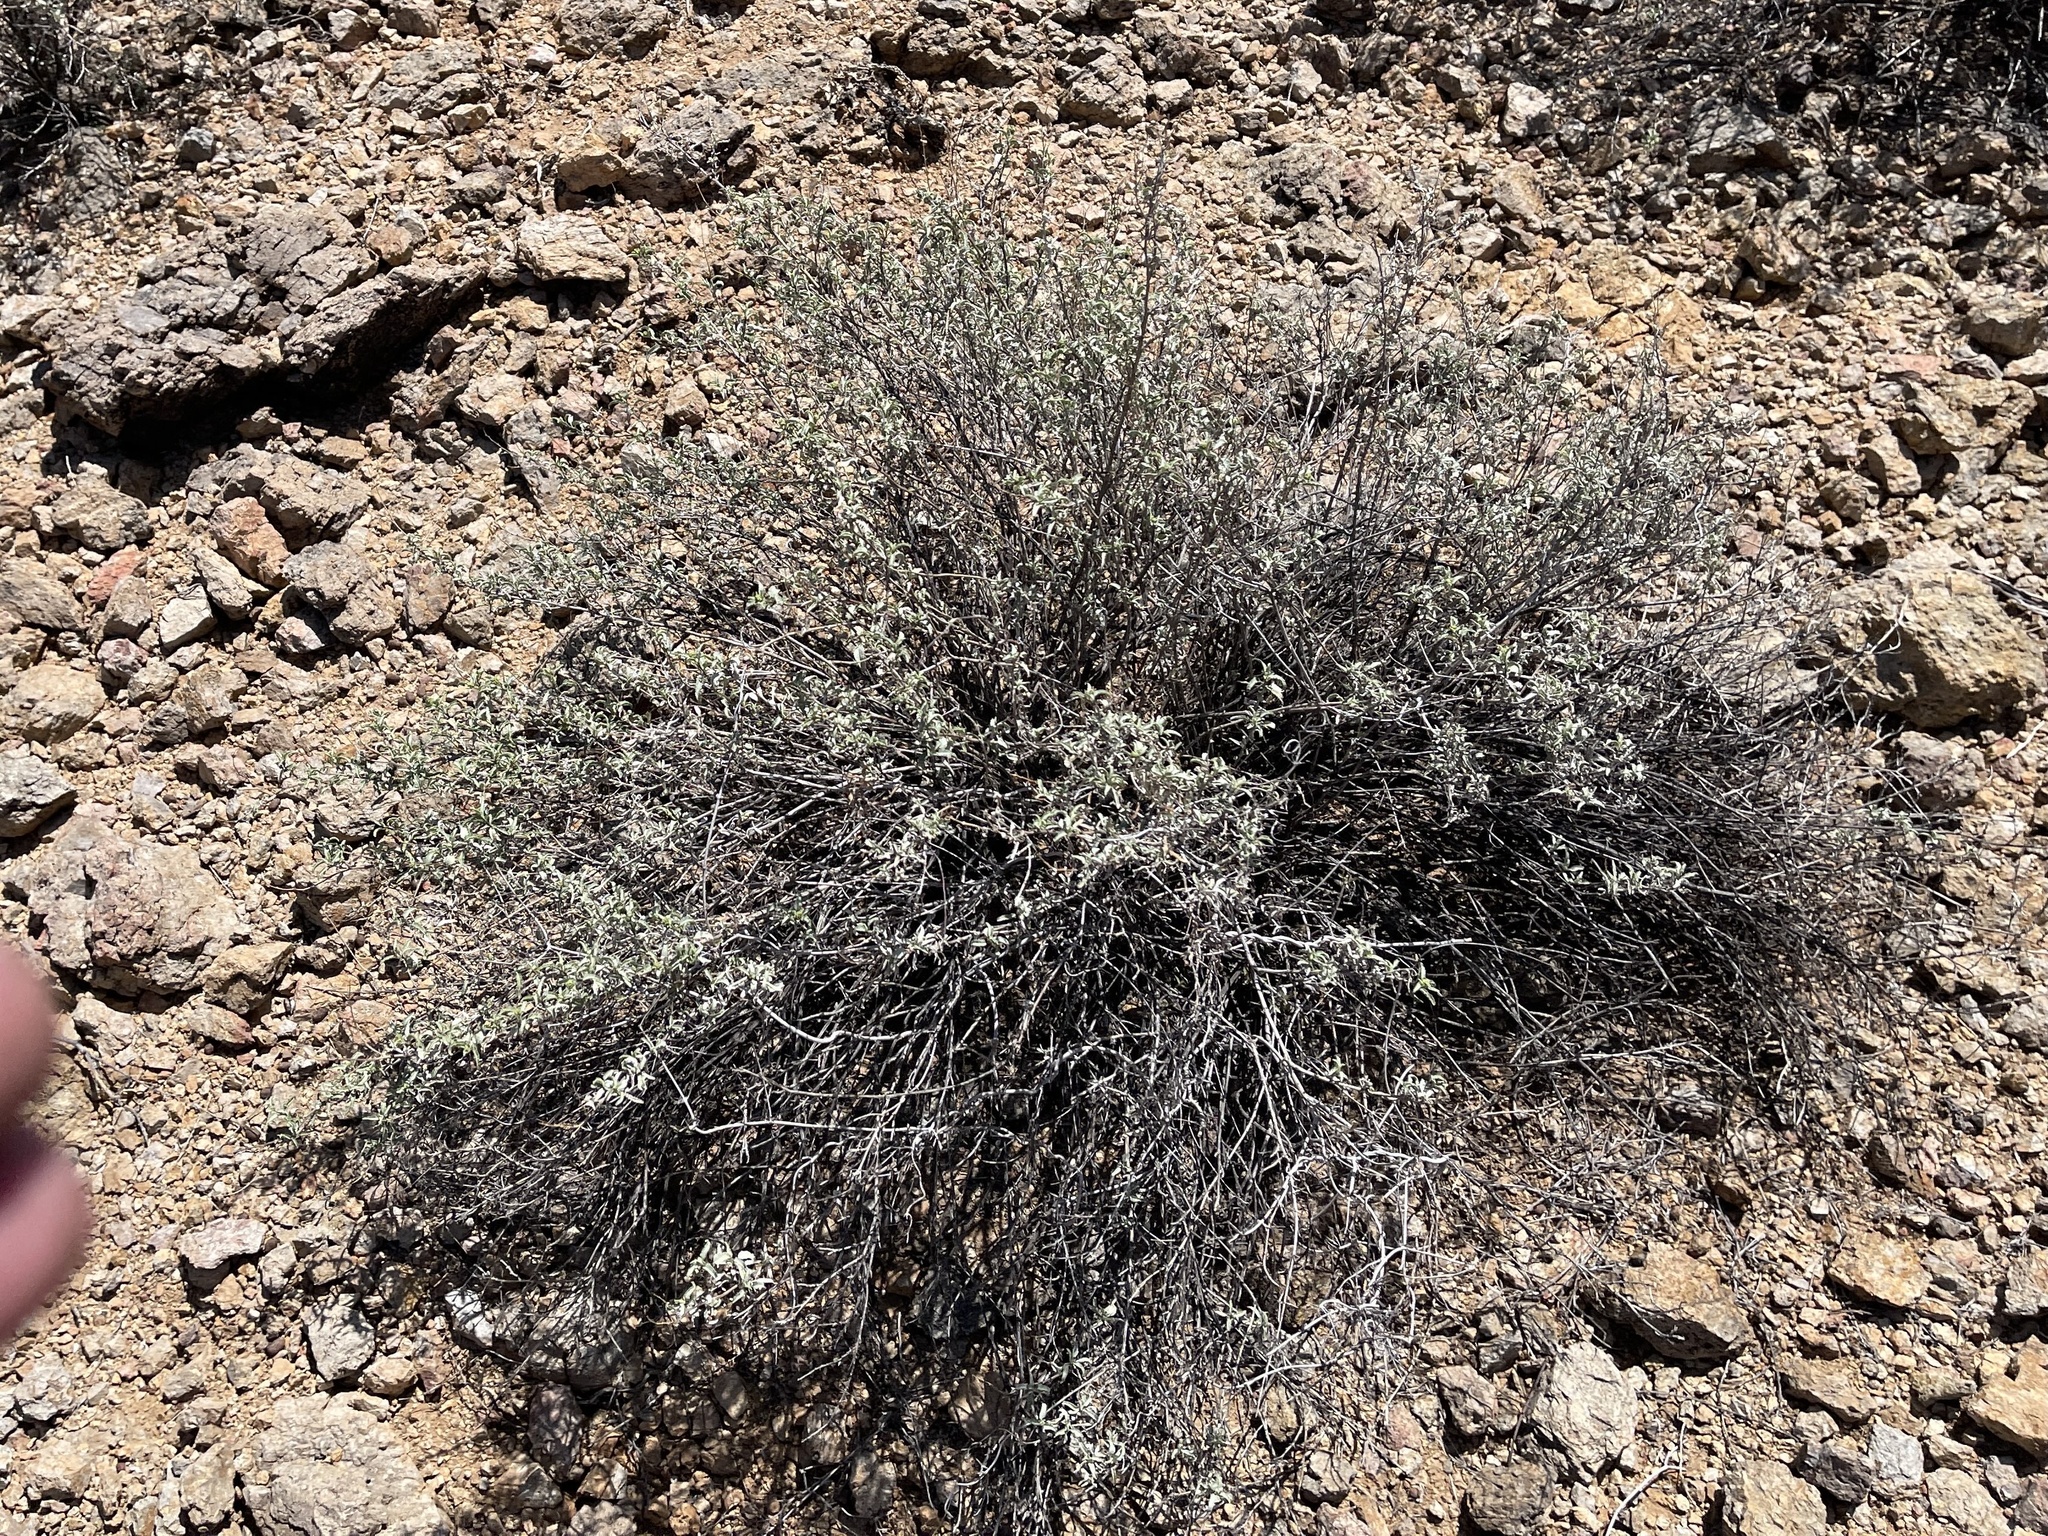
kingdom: Plantae
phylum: Tracheophyta
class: Magnoliopsida
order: Asterales
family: Asteraceae
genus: Ambrosia
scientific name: Ambrosia deltoidea
